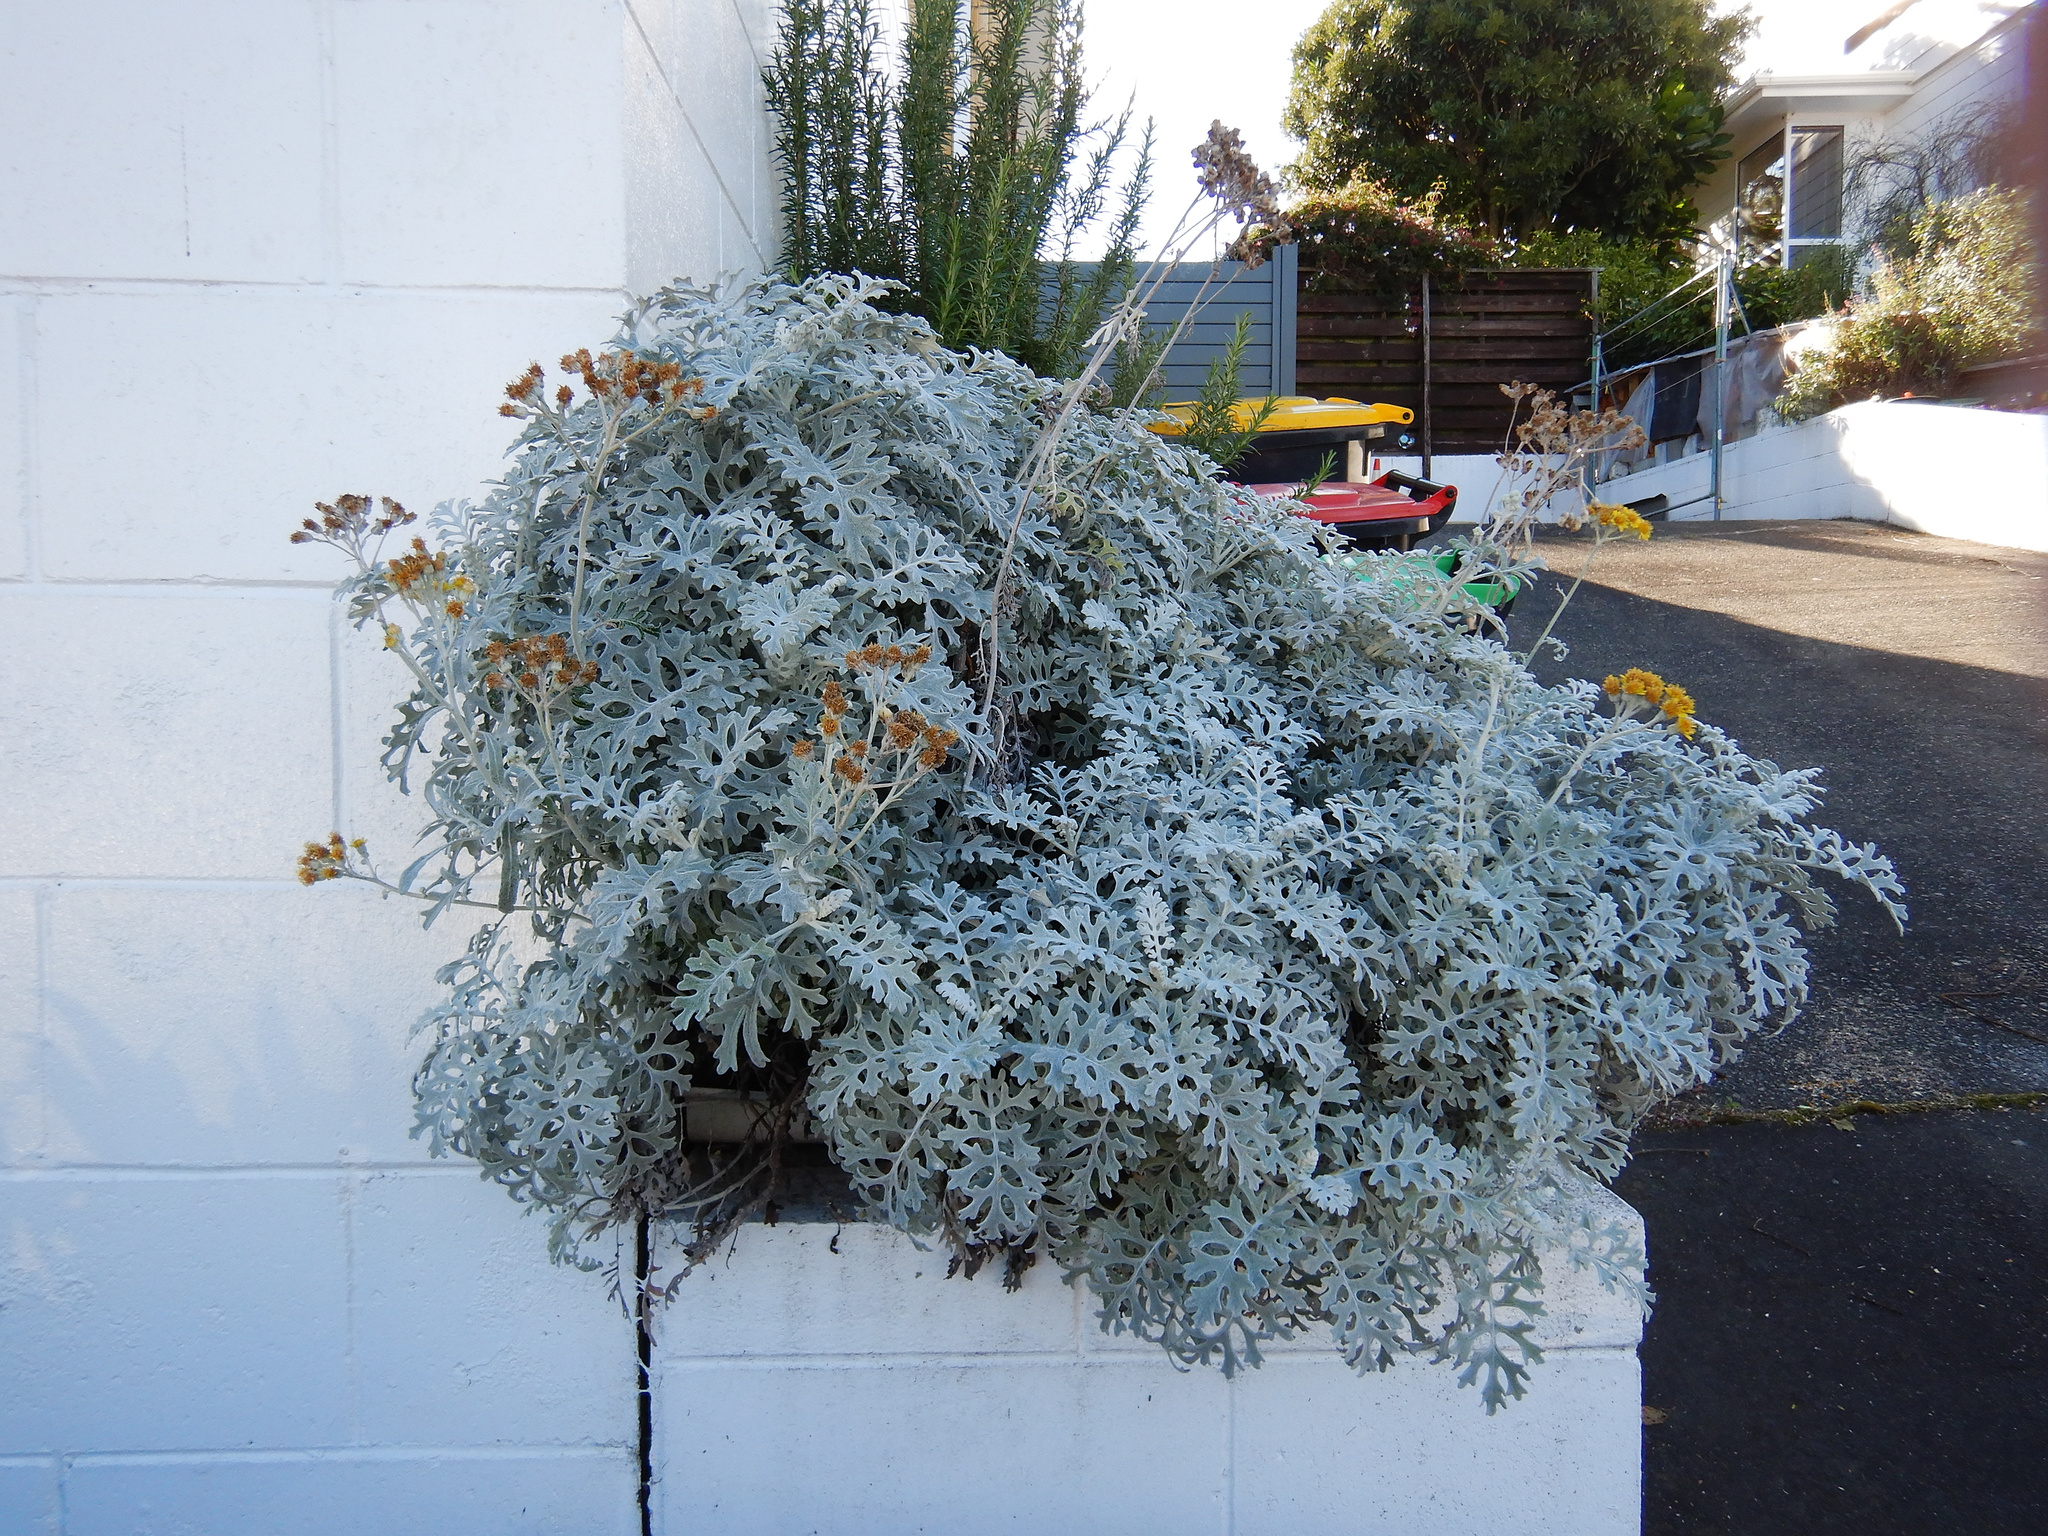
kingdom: Plantae
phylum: Tracheophyta
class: Magnoliopsida
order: Asterales
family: Asteraceae
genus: Jacobaea
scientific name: Jacobaea maritima
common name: Silver ragwort
